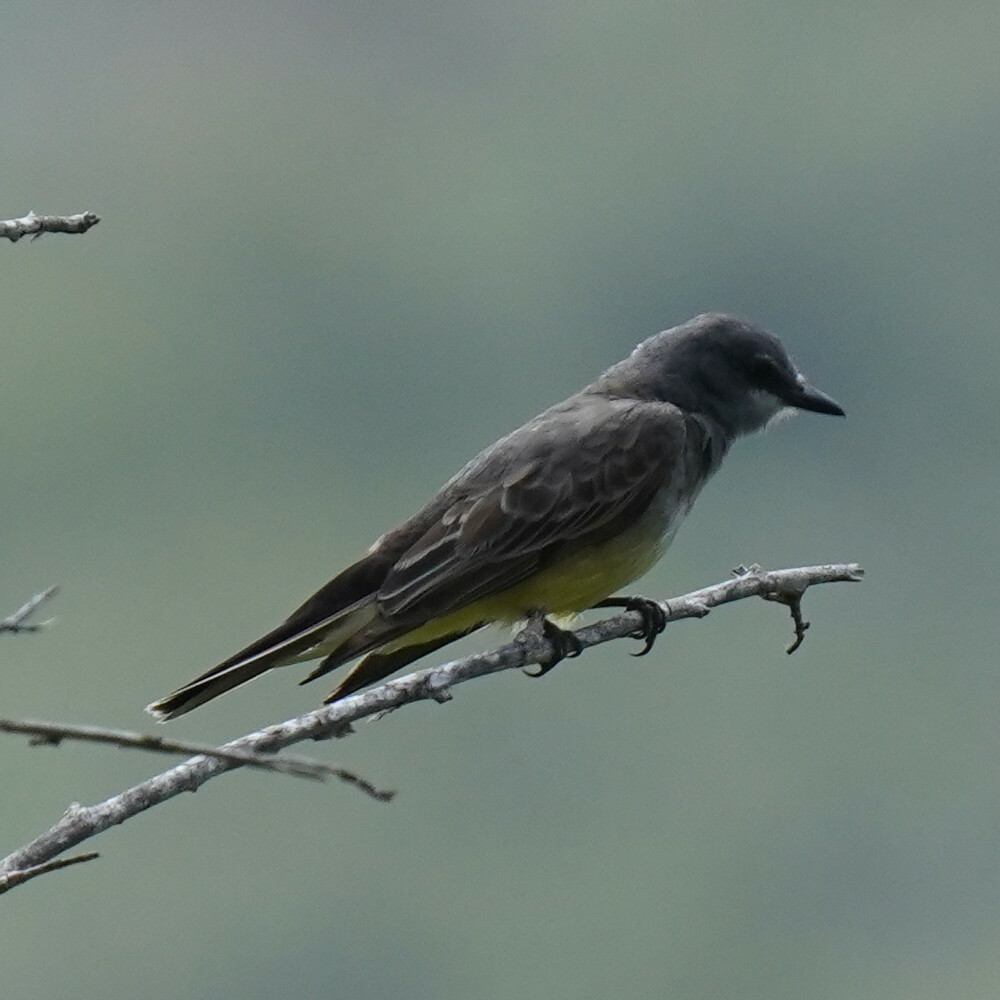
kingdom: Animalia
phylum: Chordata
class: Aves
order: Passeriformes
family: Tyrannidae
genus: Tyrannus
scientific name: Tyrannus vociferans
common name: Cassin's kingbird
